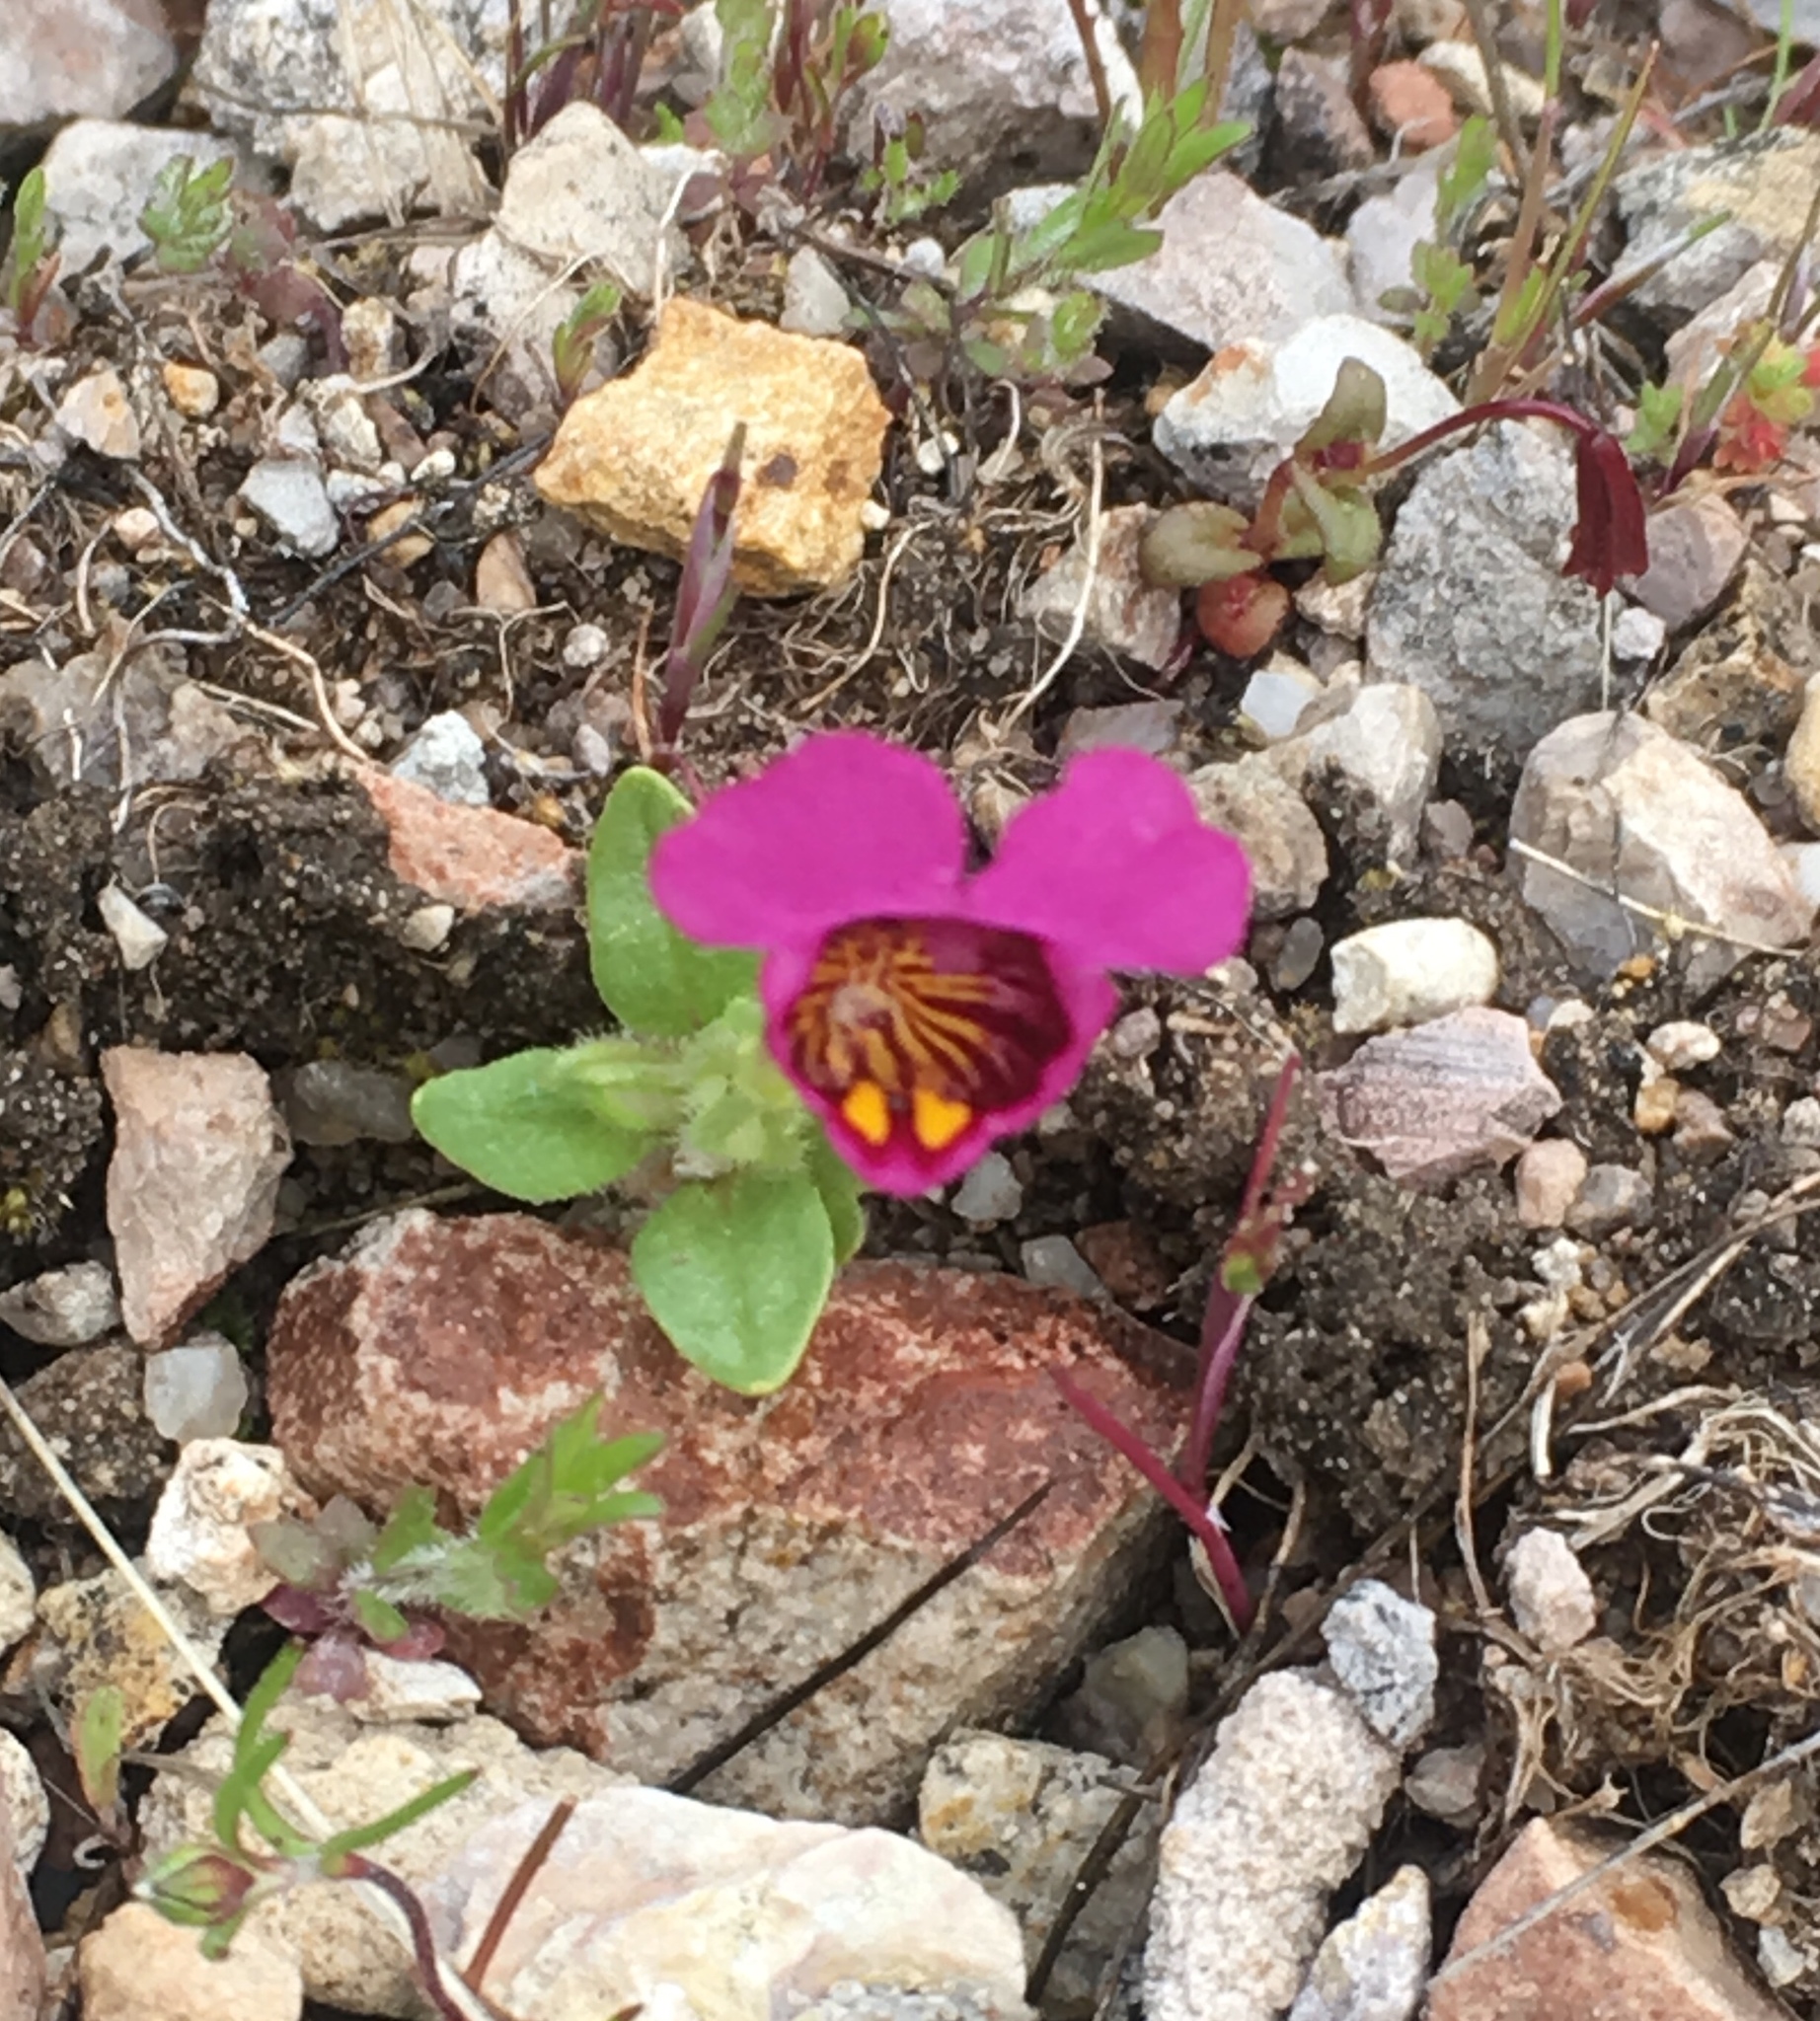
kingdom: Plantae
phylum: Tracheophyta
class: Magnoliopsida
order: Lamiales
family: Phrymaceae
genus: Diplacus
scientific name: Diplacus douglasii
